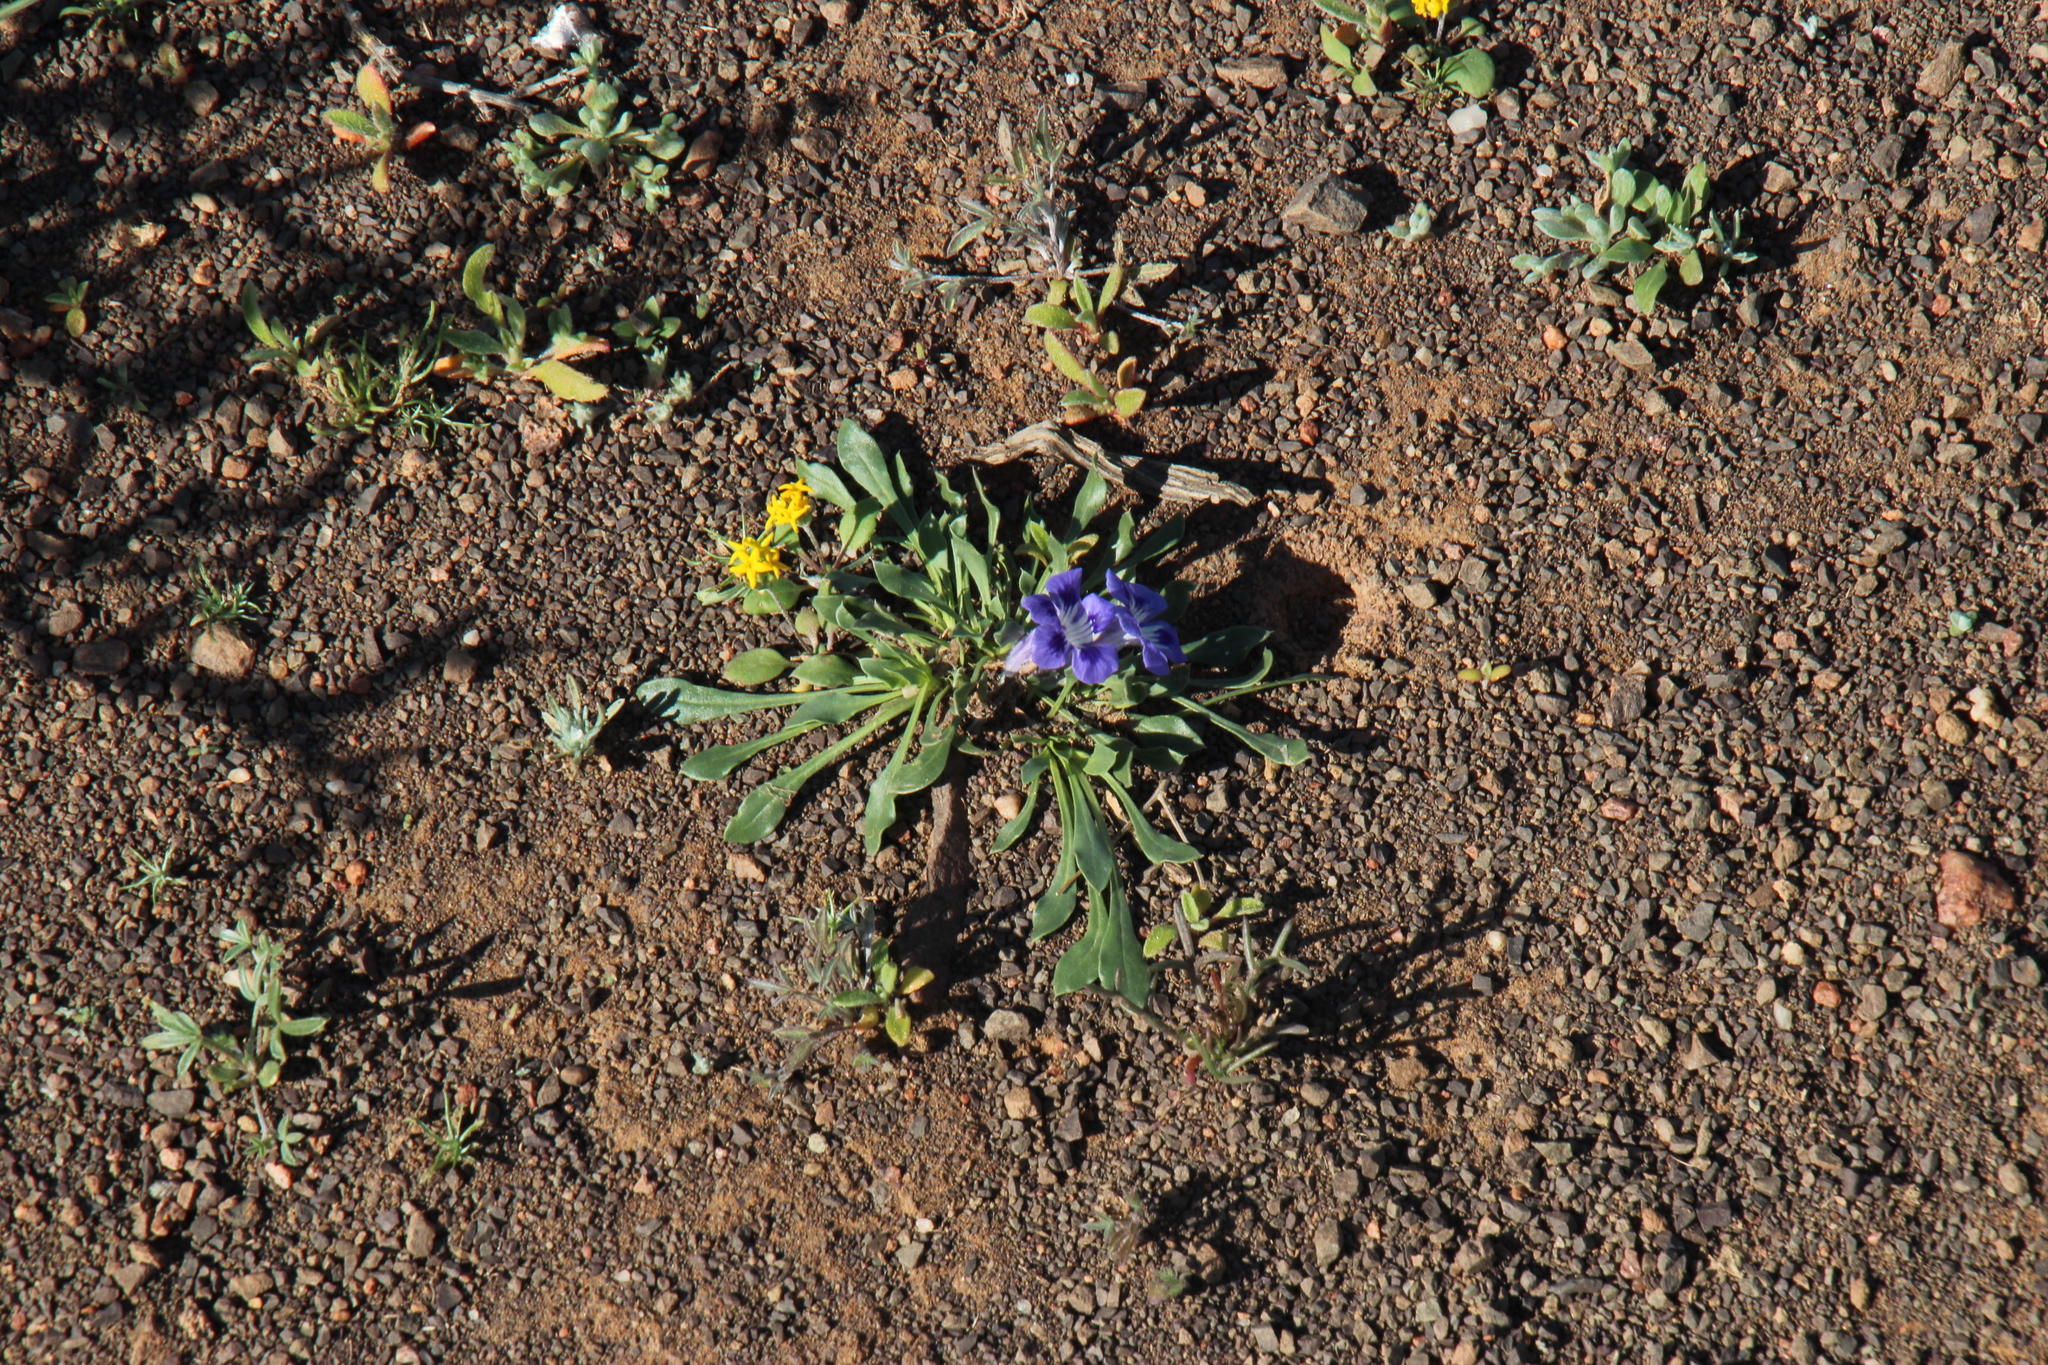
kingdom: Plantae
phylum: Tracheophyta
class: Magnoliopsida
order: Lamiales
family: Scrophulariaceae
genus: Aptosimum
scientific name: Aptosimum indivisum
